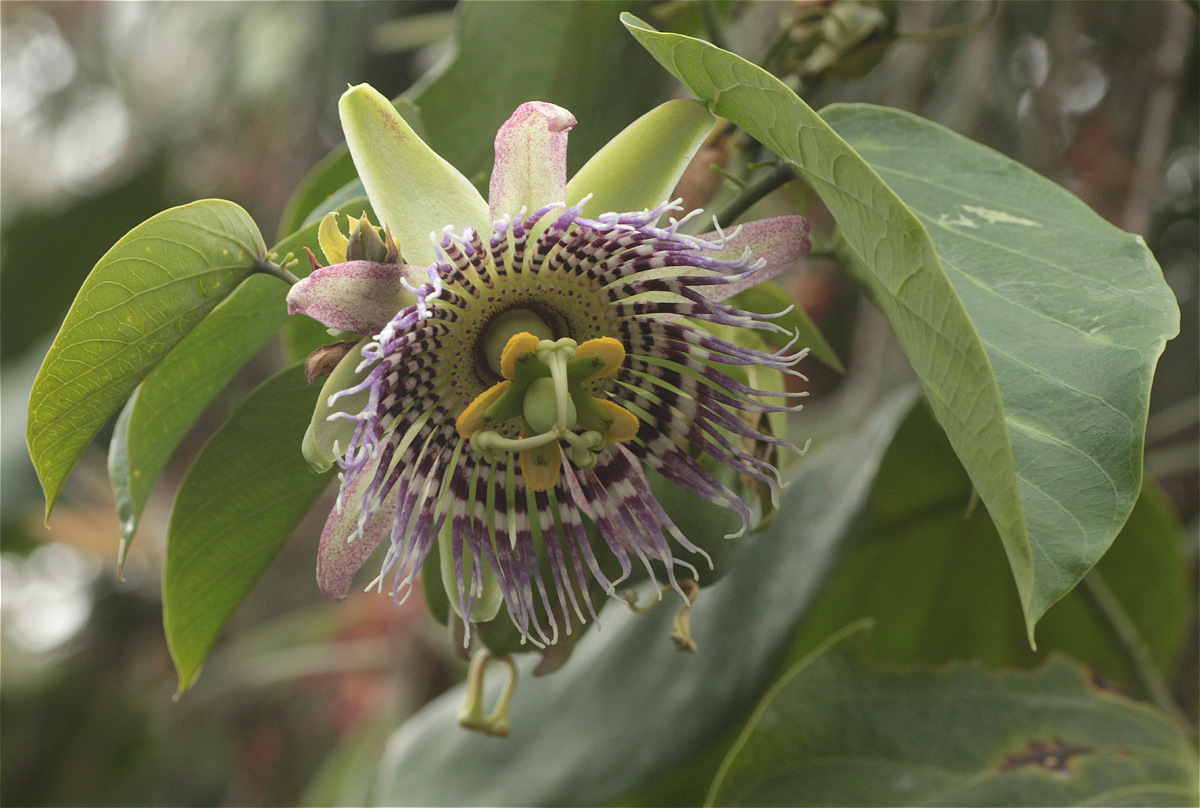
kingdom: Plantae
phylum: Tracheophyta
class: Magnoliopsida
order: Malpighiales
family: Passifloraceae
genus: Passiflora
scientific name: Passiflora ligularis
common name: Sweet granadilla
